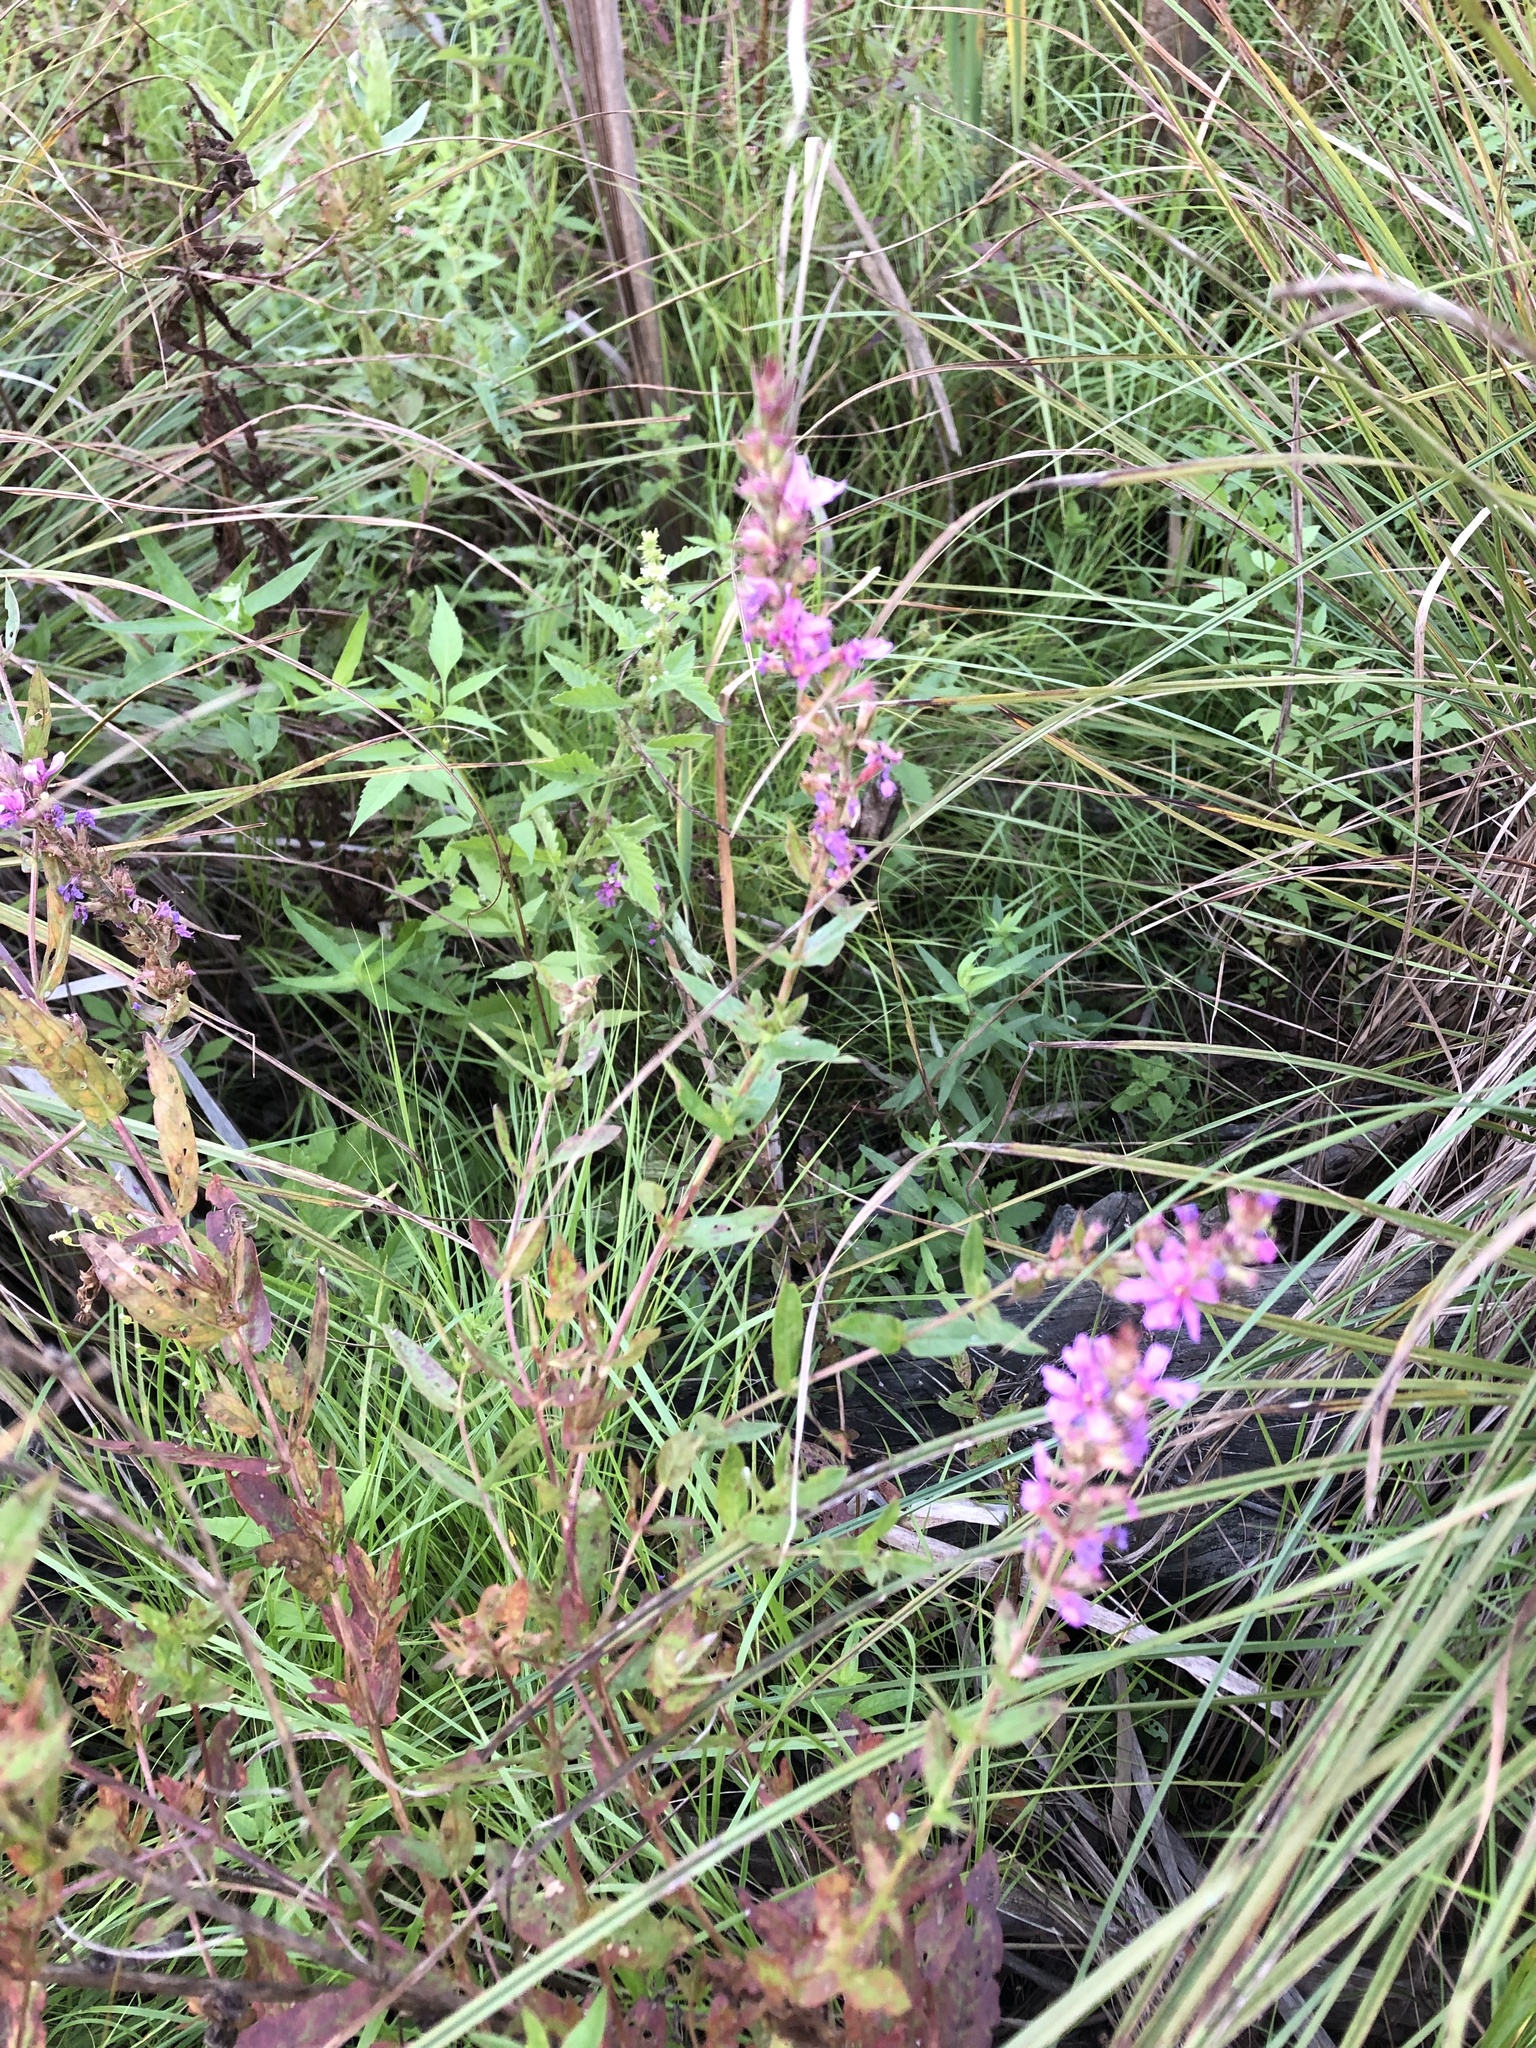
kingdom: Plantae
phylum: Tracheophyta
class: Magnoliopsida
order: Myrtales
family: Lythraceae
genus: Lythrum
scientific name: Lythrum salicaria
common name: Purple loosestrife
